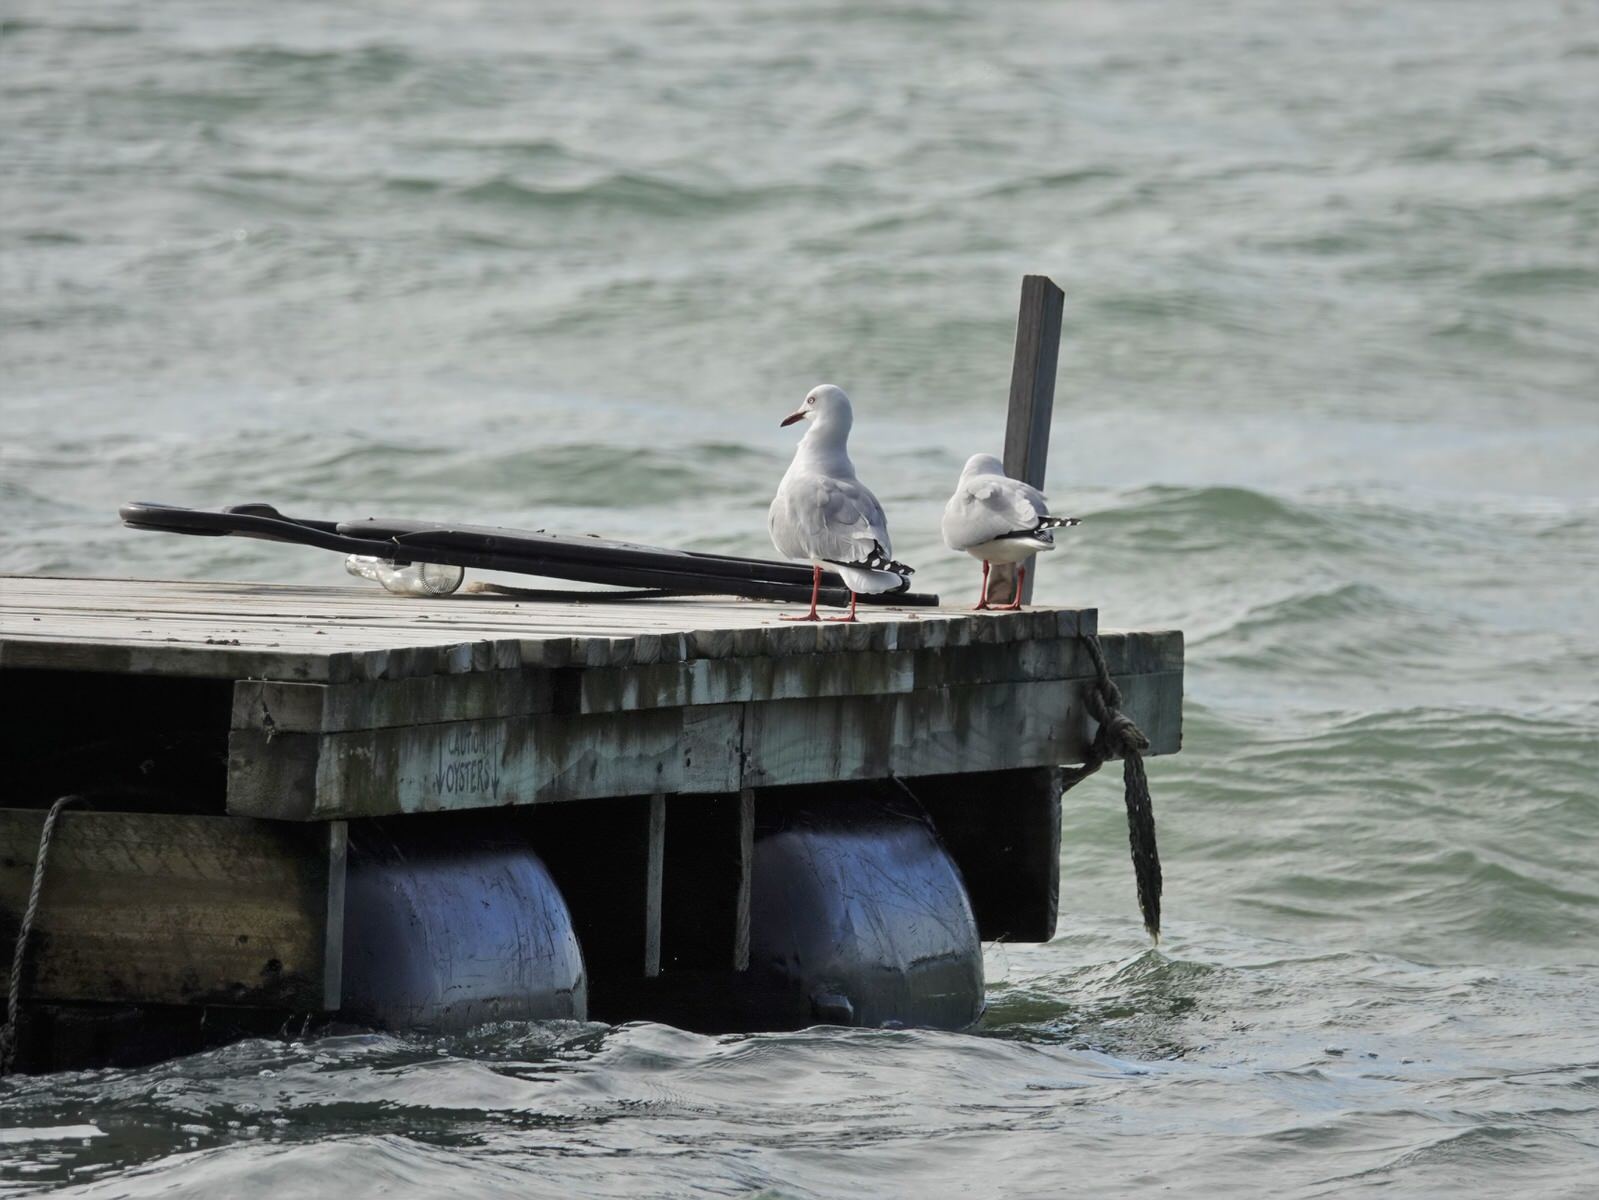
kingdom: Animalia
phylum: Chordata
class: Aves
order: Charadriiformes
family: Laridae
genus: Chroicocephalus
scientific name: Chroicocephalus novaehollandiae
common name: Silver gull
